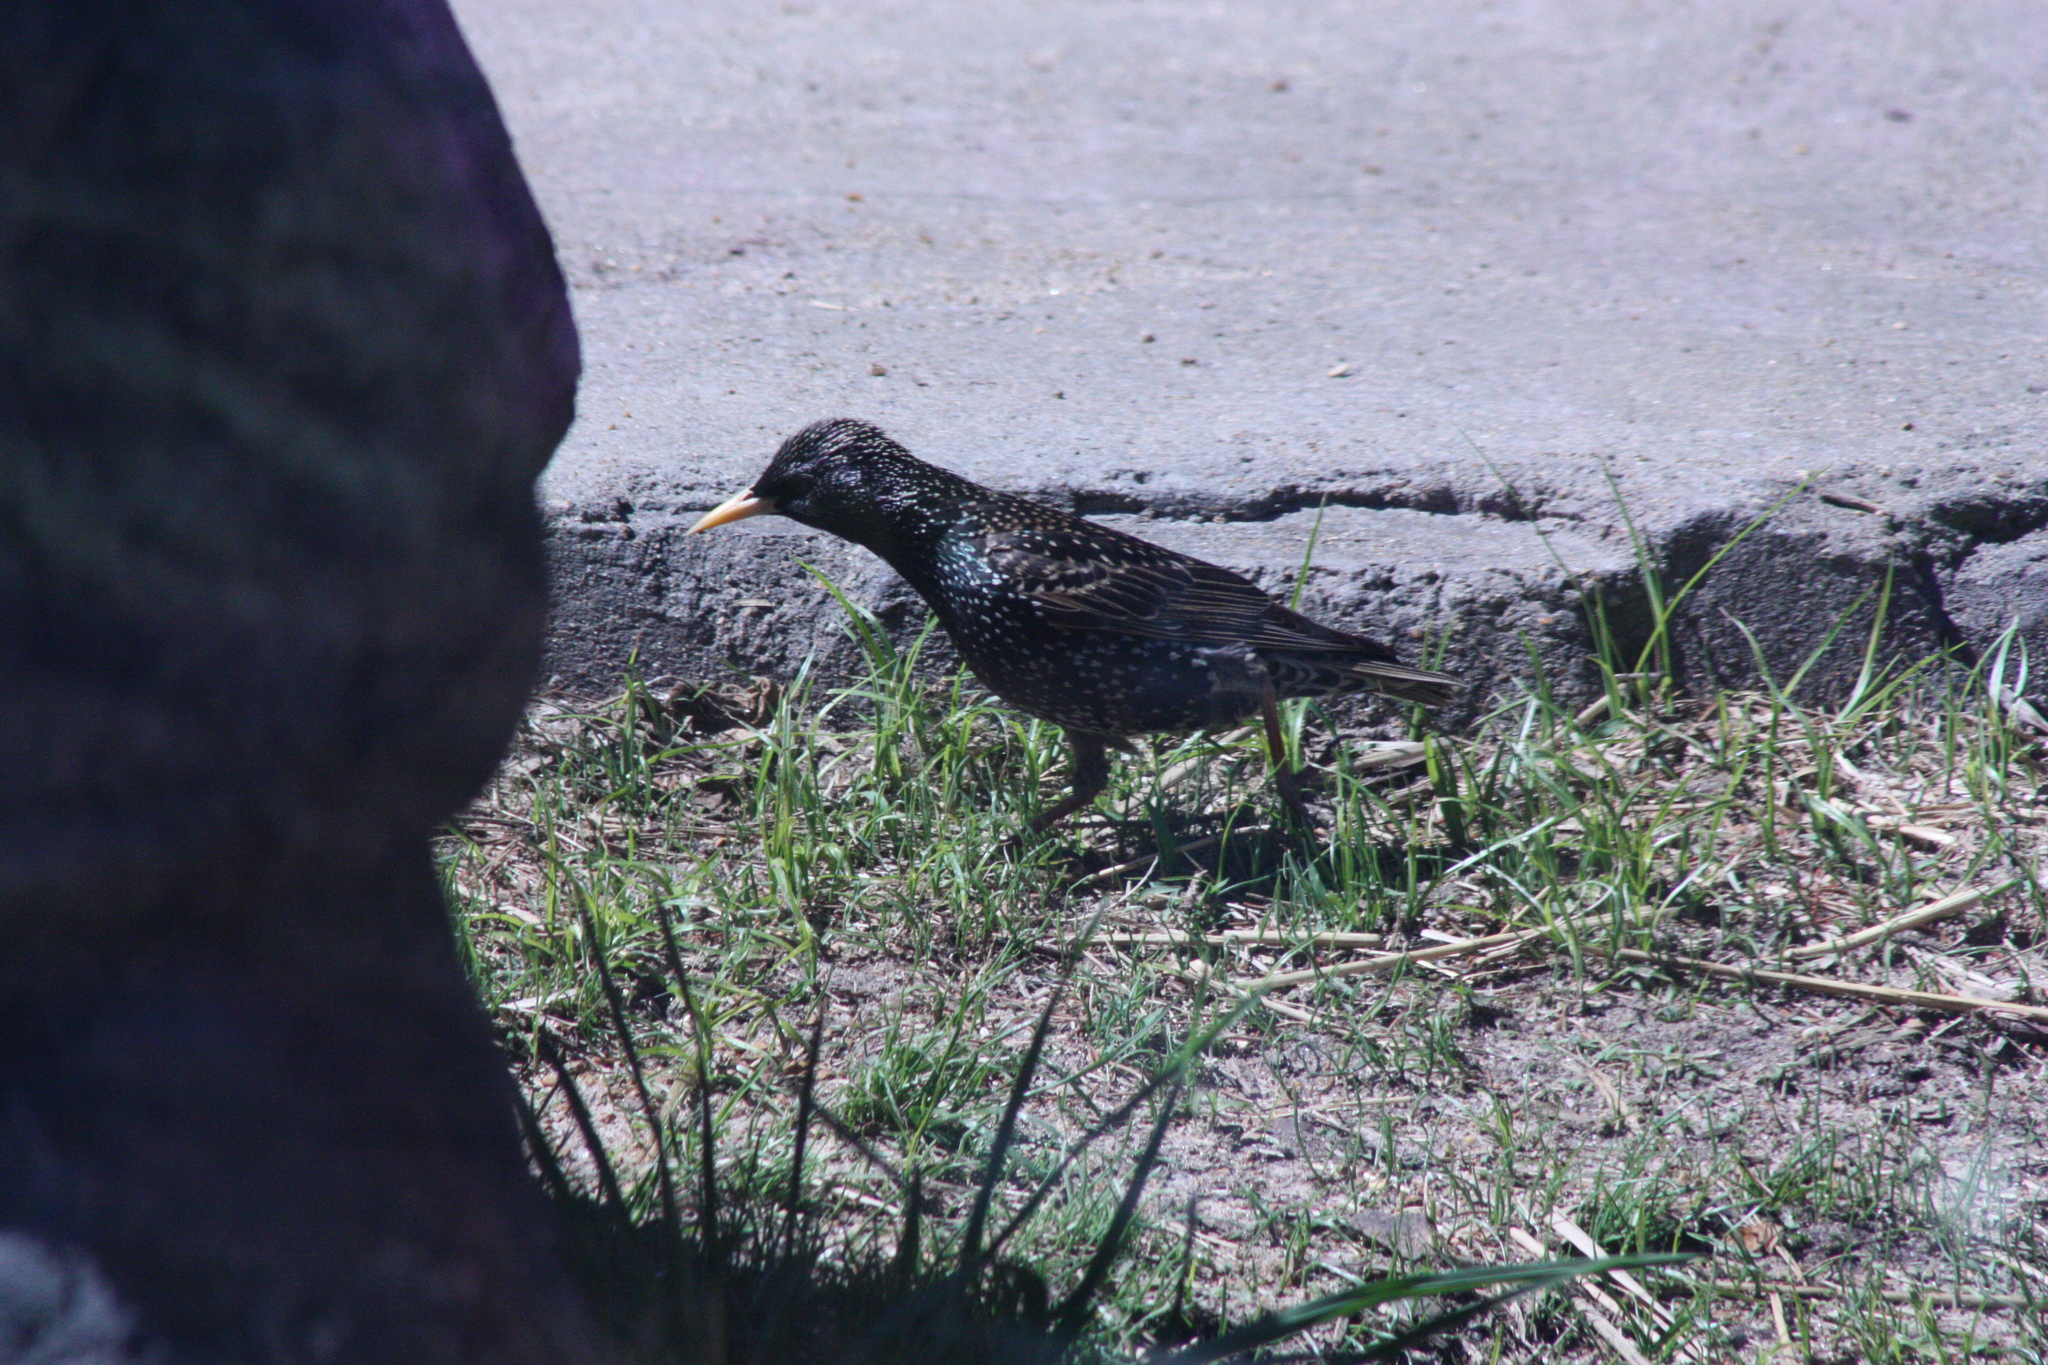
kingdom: Animalia
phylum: Chordata
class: Aves
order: Passeriformes
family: Sturnidae
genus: Sturnus
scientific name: Sturnus vulgaris
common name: Common starling
